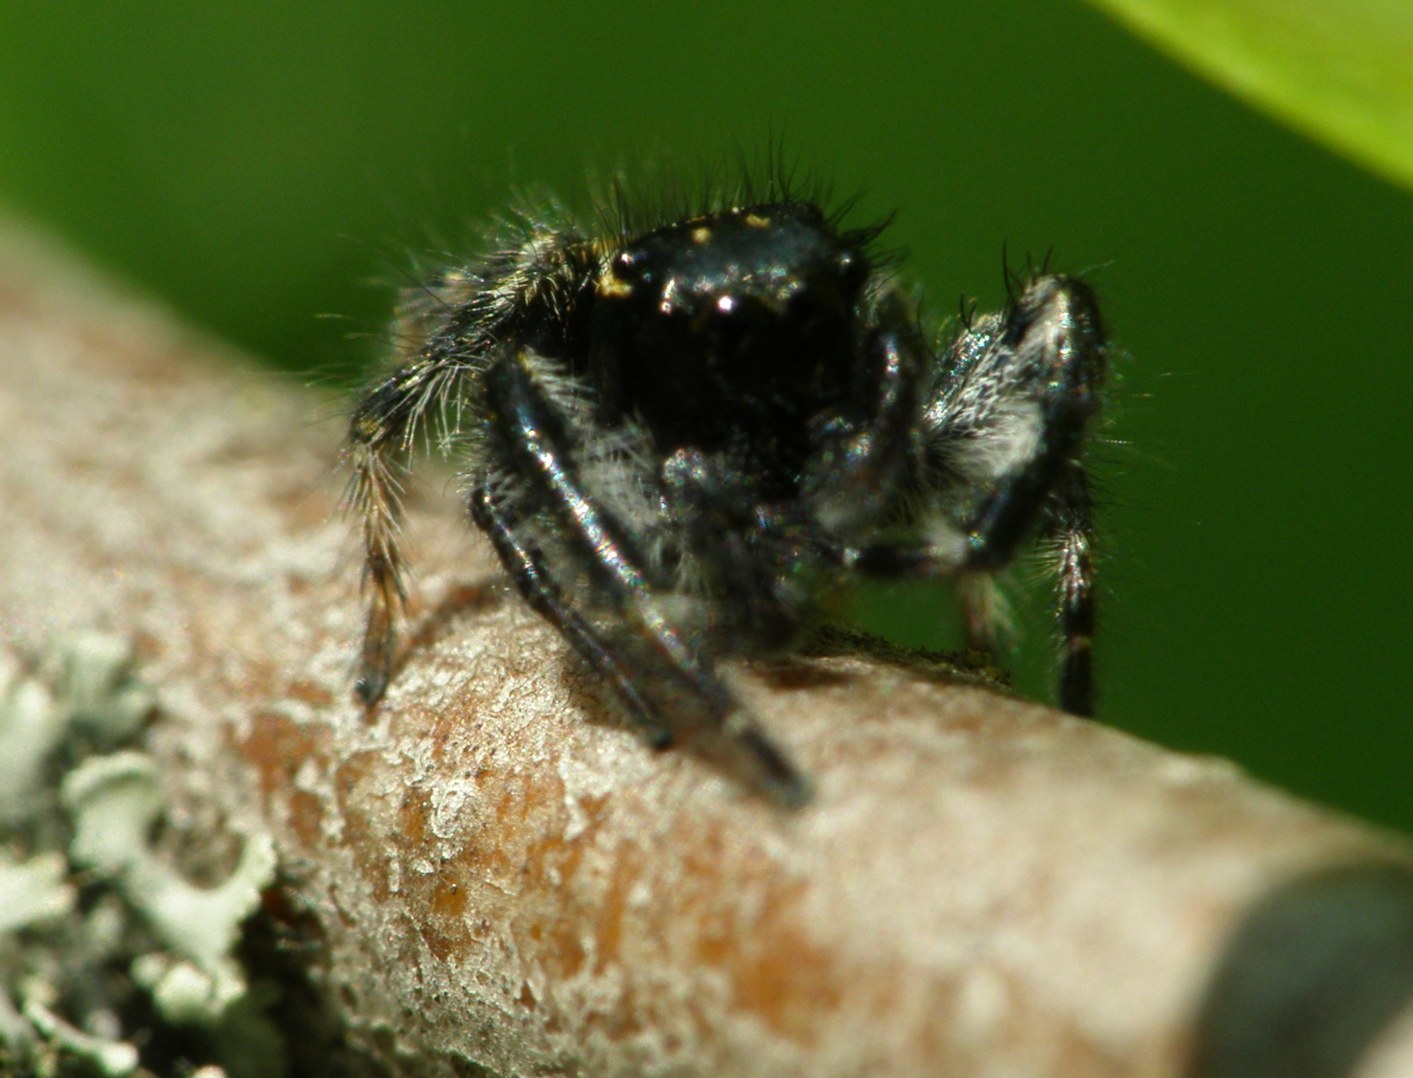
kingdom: Animalia
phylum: Arthropoda
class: Arachnida
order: Araneae
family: Salticidae
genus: Carrhotus
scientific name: Carrhotus xanthogramma
